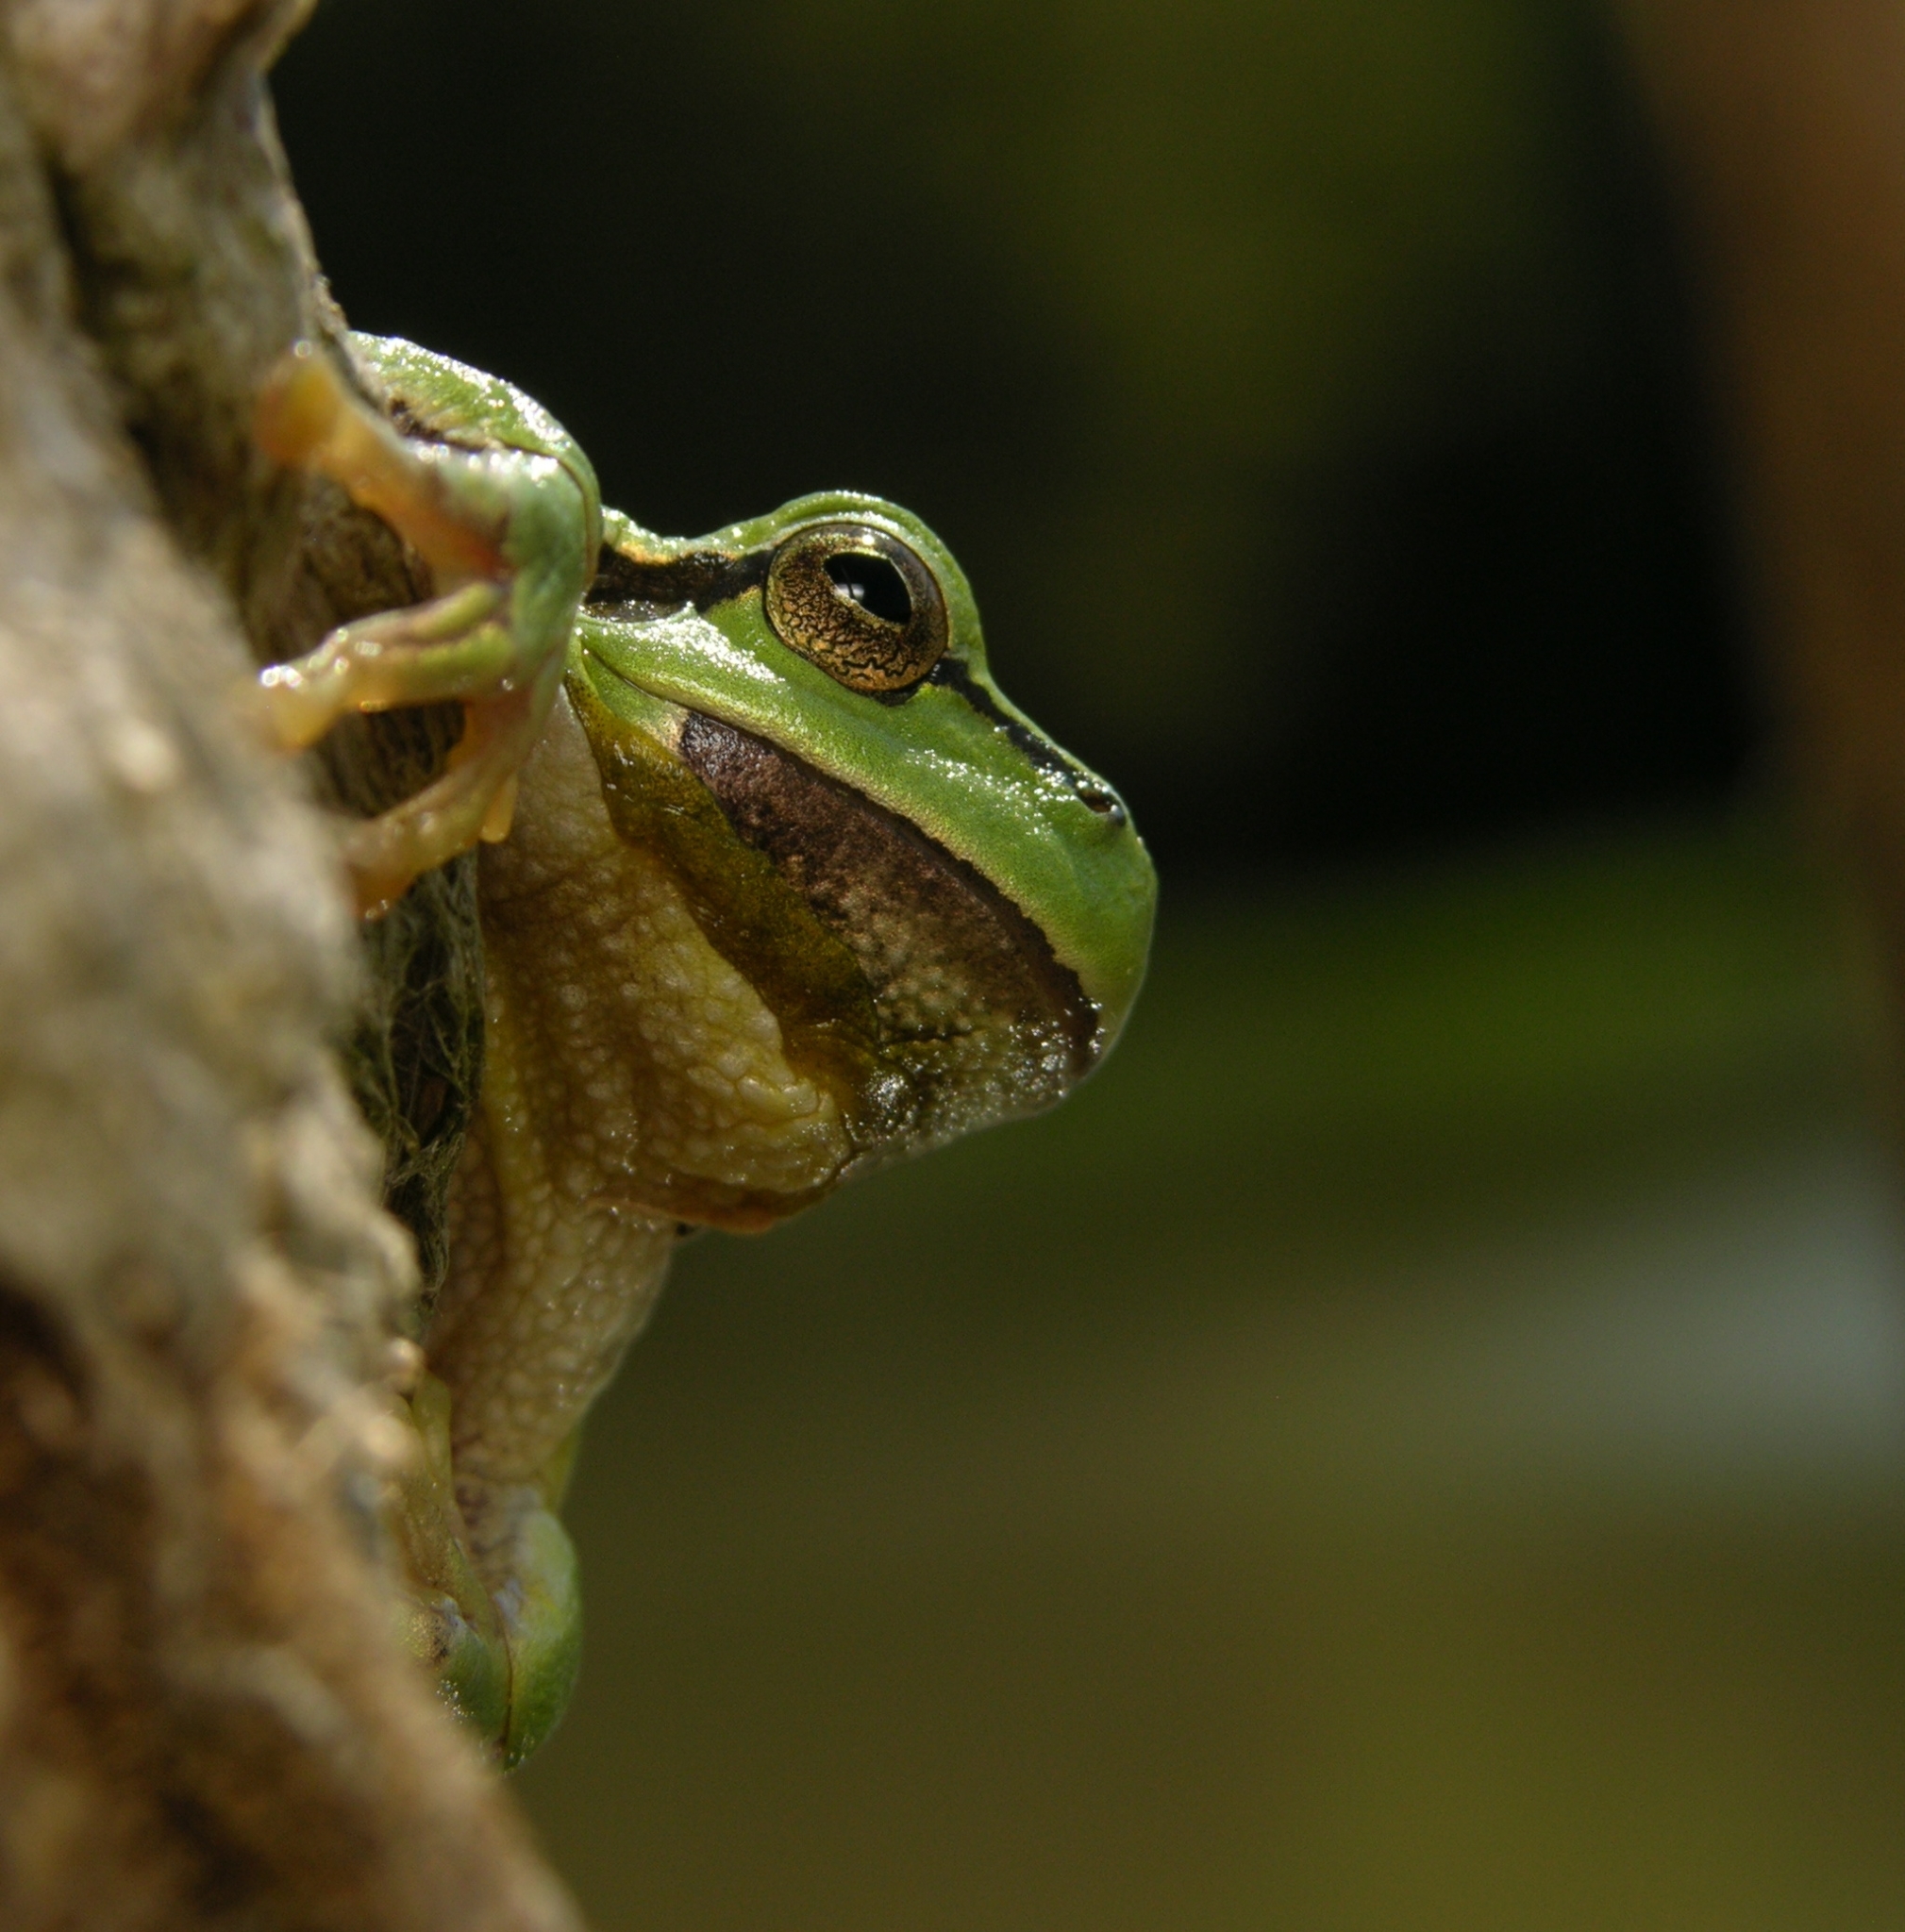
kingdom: Animalia
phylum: Chordata
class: Amphibia
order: Anura
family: Hylidae
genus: Hyla
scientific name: Hyla arborea
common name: Common tree frog
